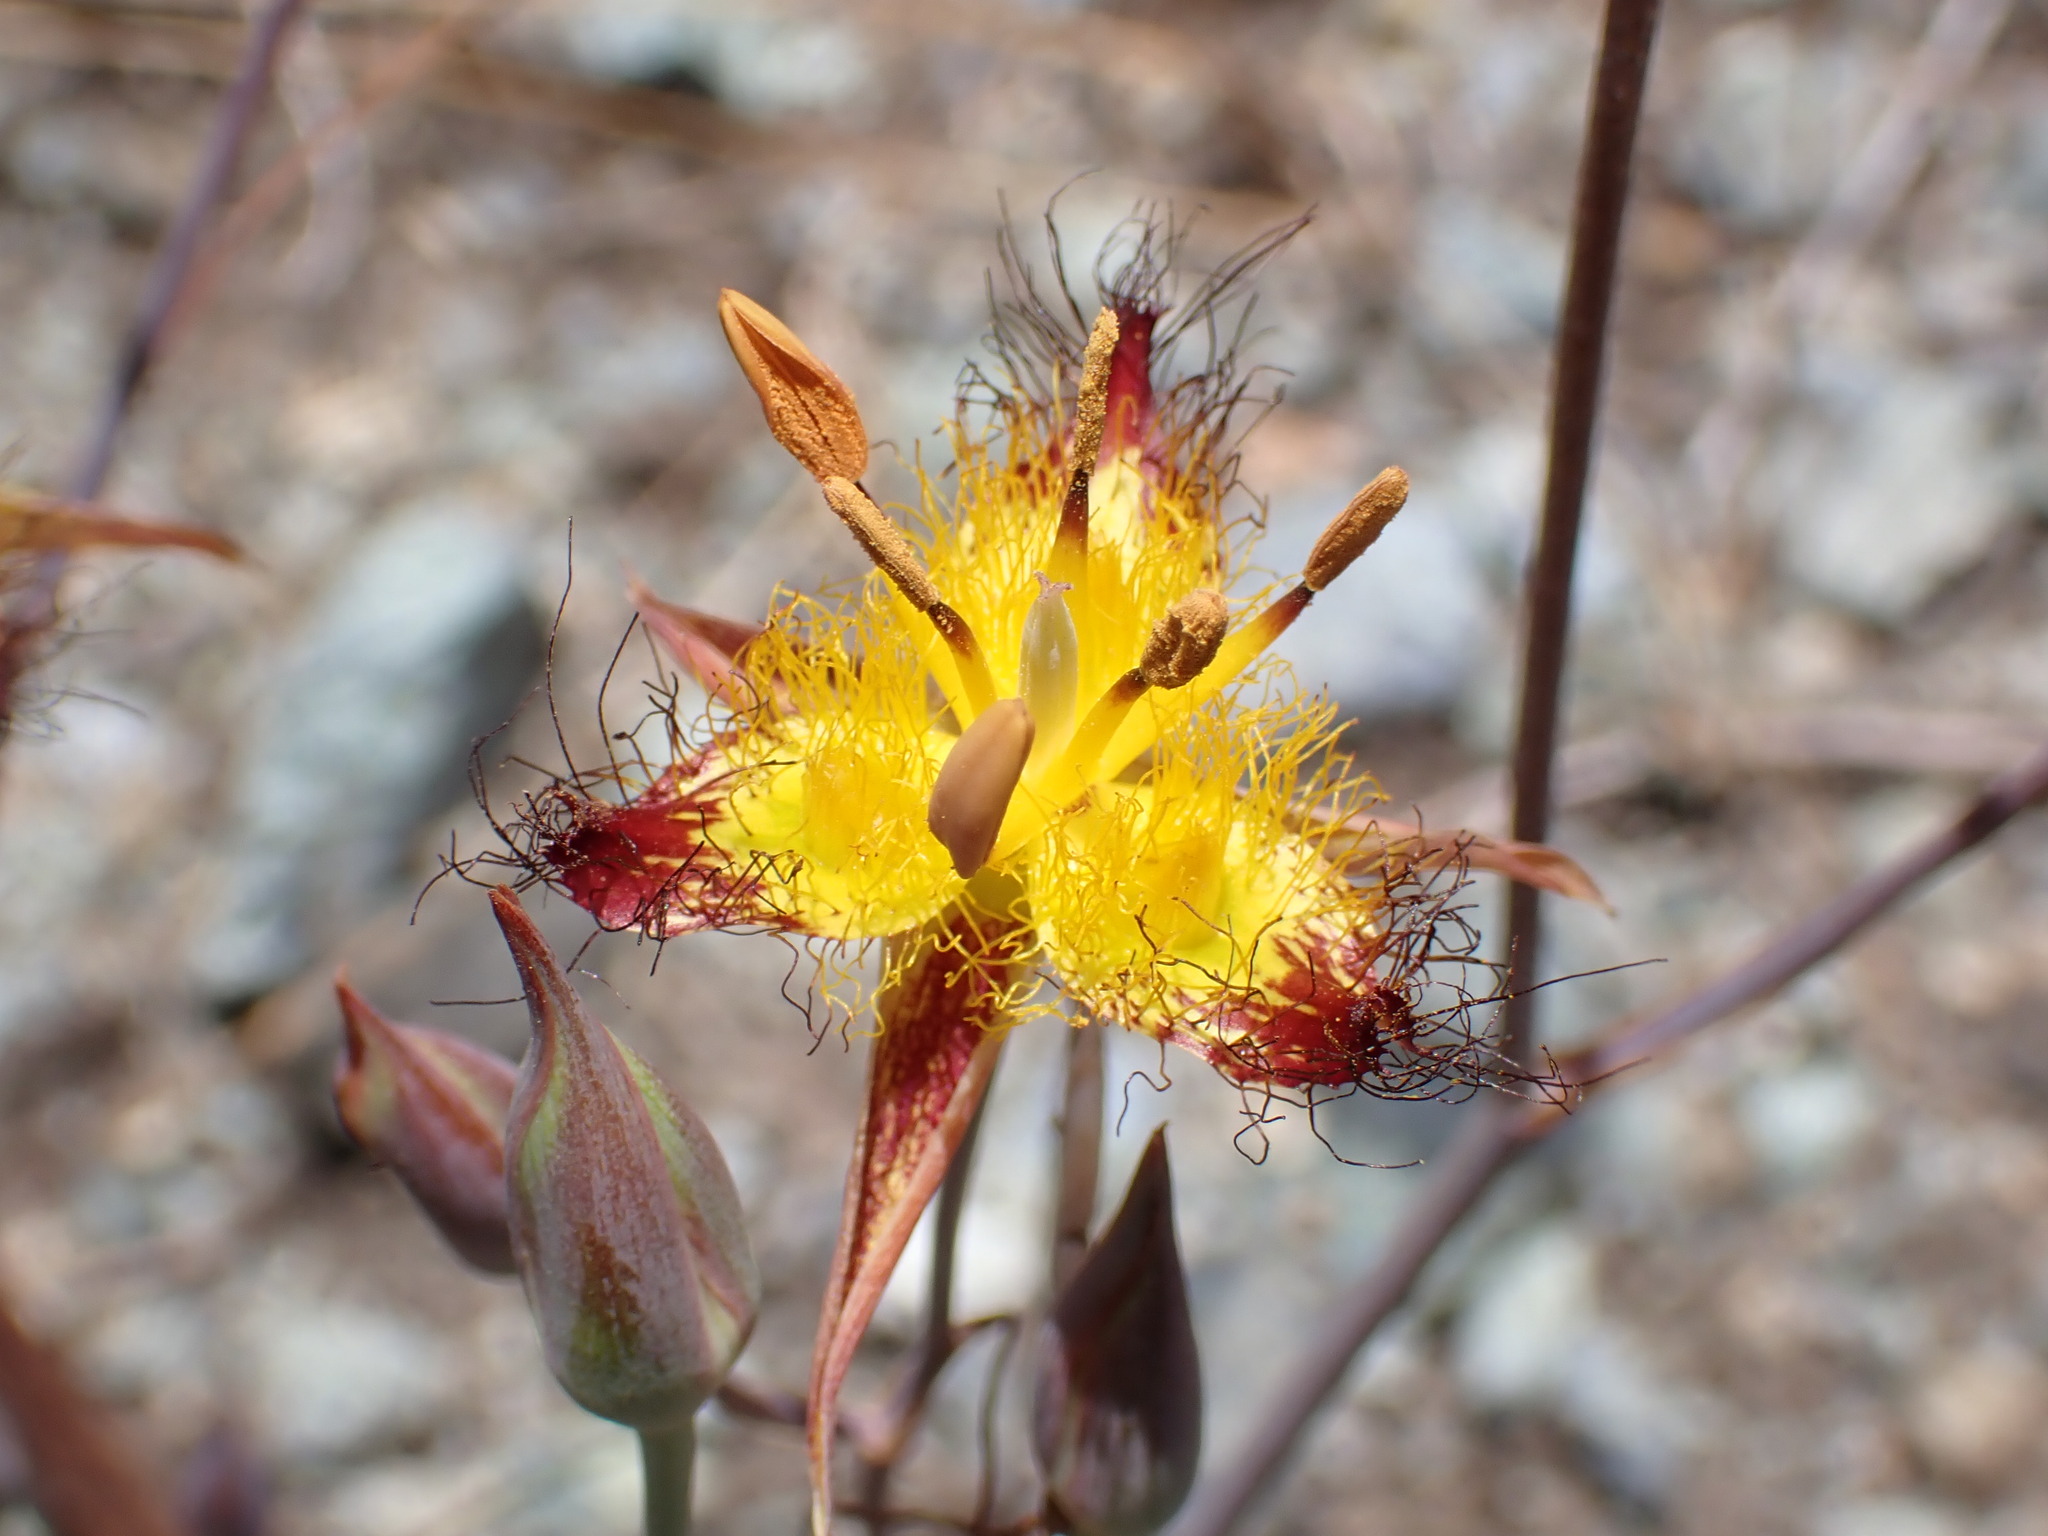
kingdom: Plantae
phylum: Tracheophyta
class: Liliopsida
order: Liliales
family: Liliaceae
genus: Calochortus
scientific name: Calochortus obispoensis
